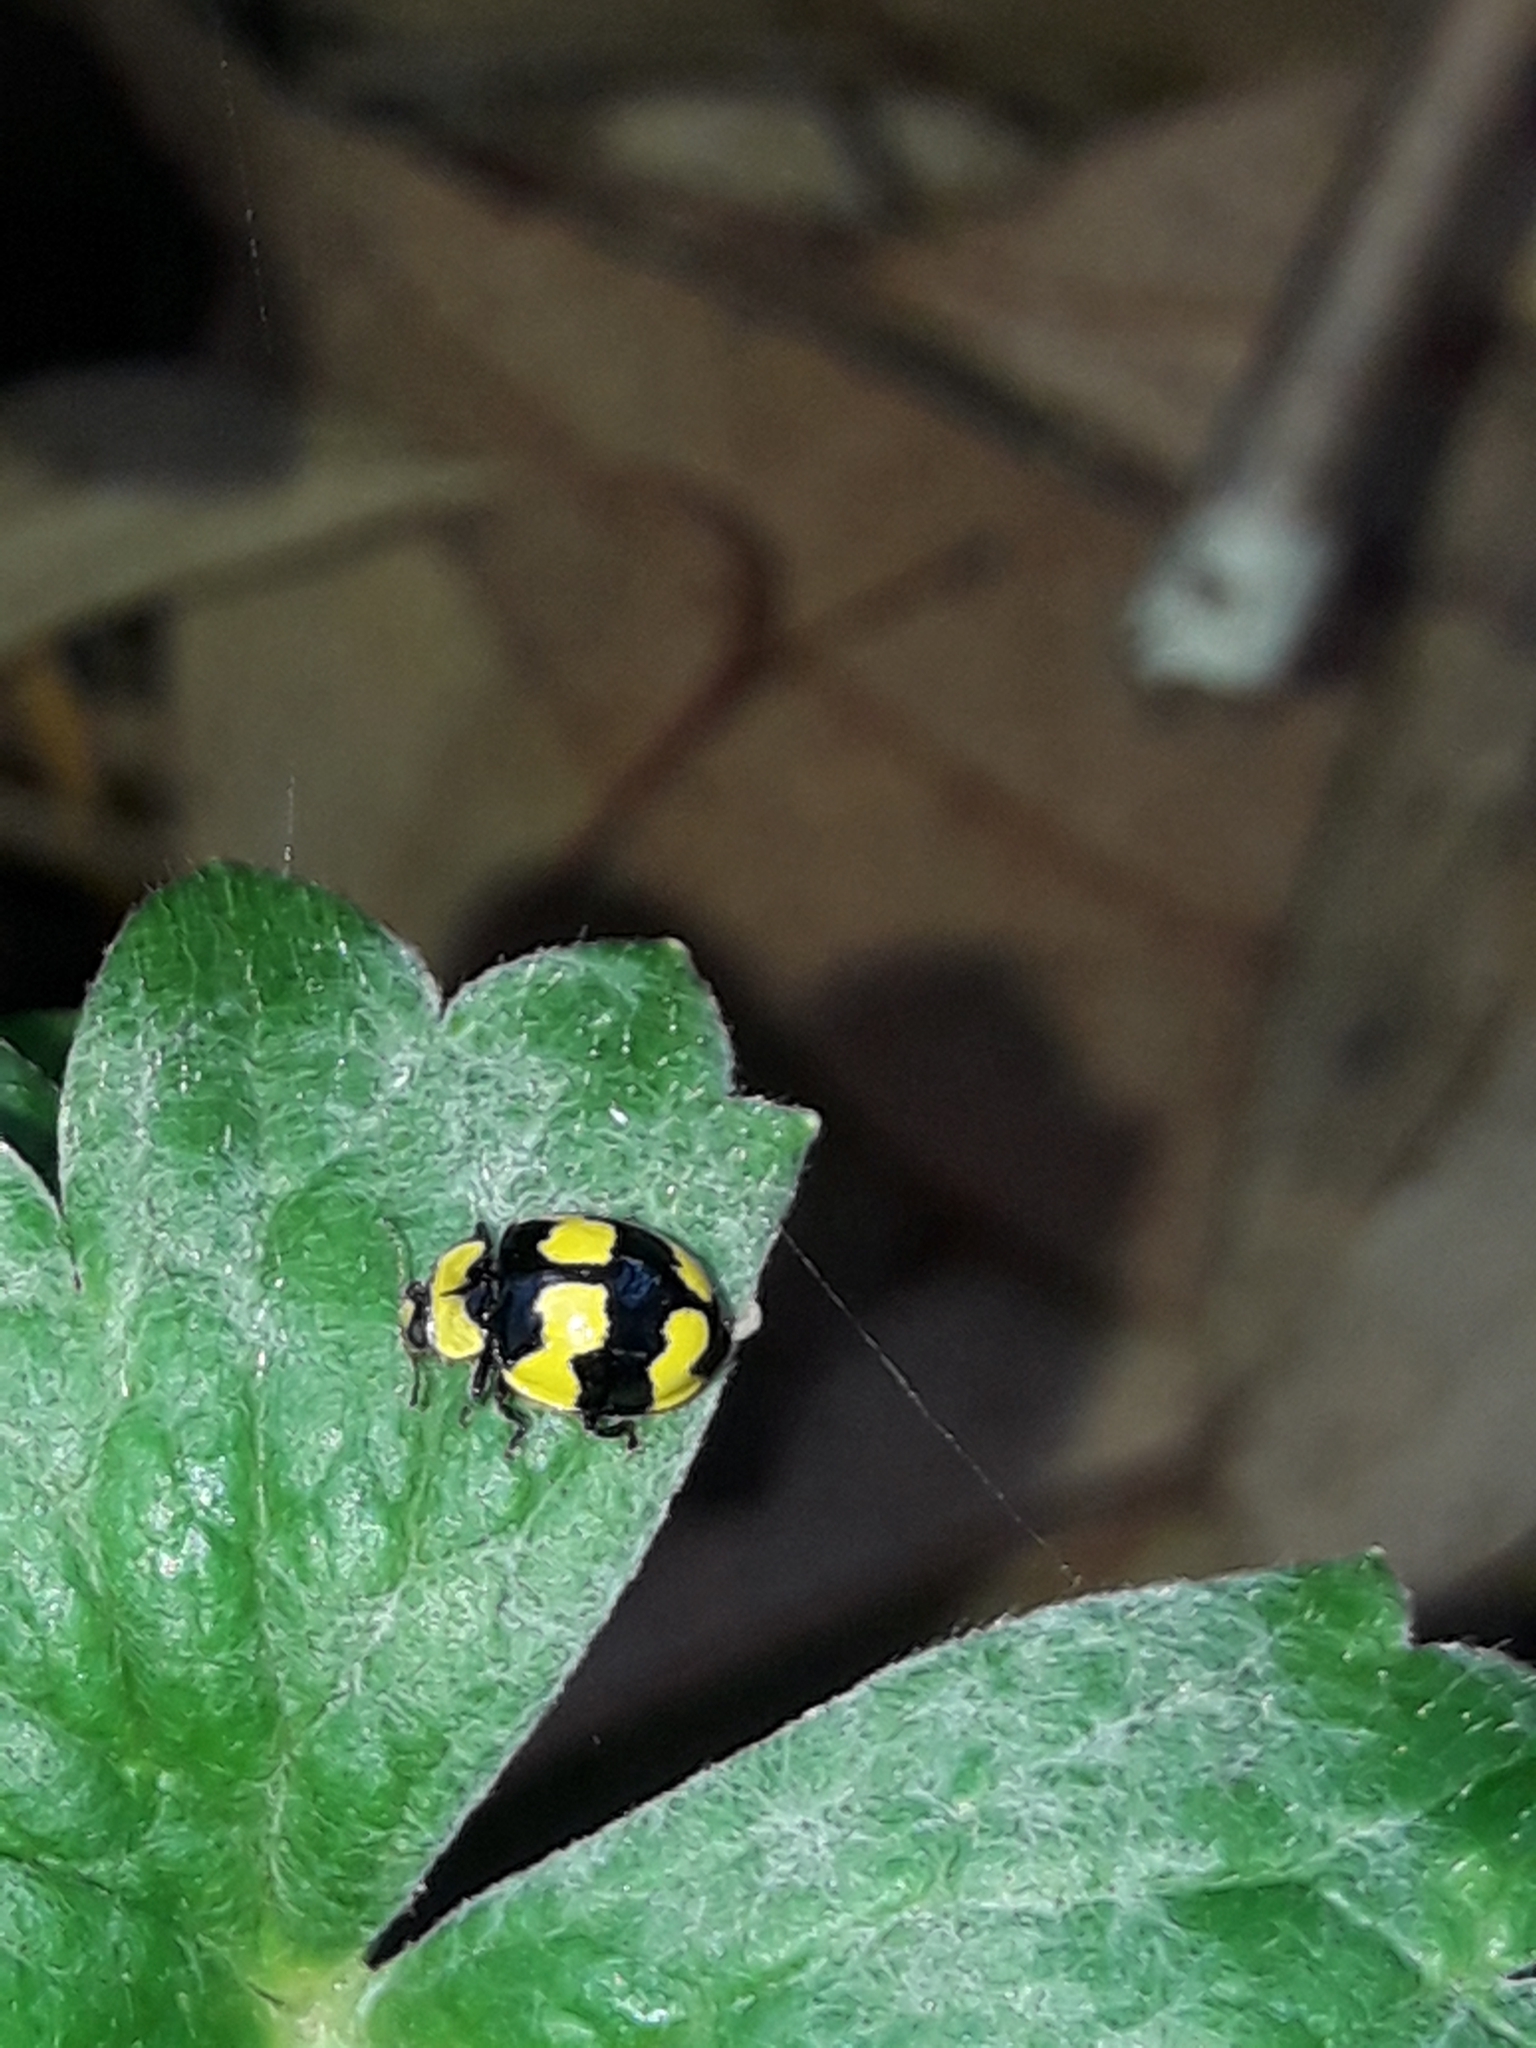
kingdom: Animalia
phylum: Arthropoda
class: Insecta
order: Coleoptera
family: Coccinellidae
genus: Illeis
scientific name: Illeis galbula
